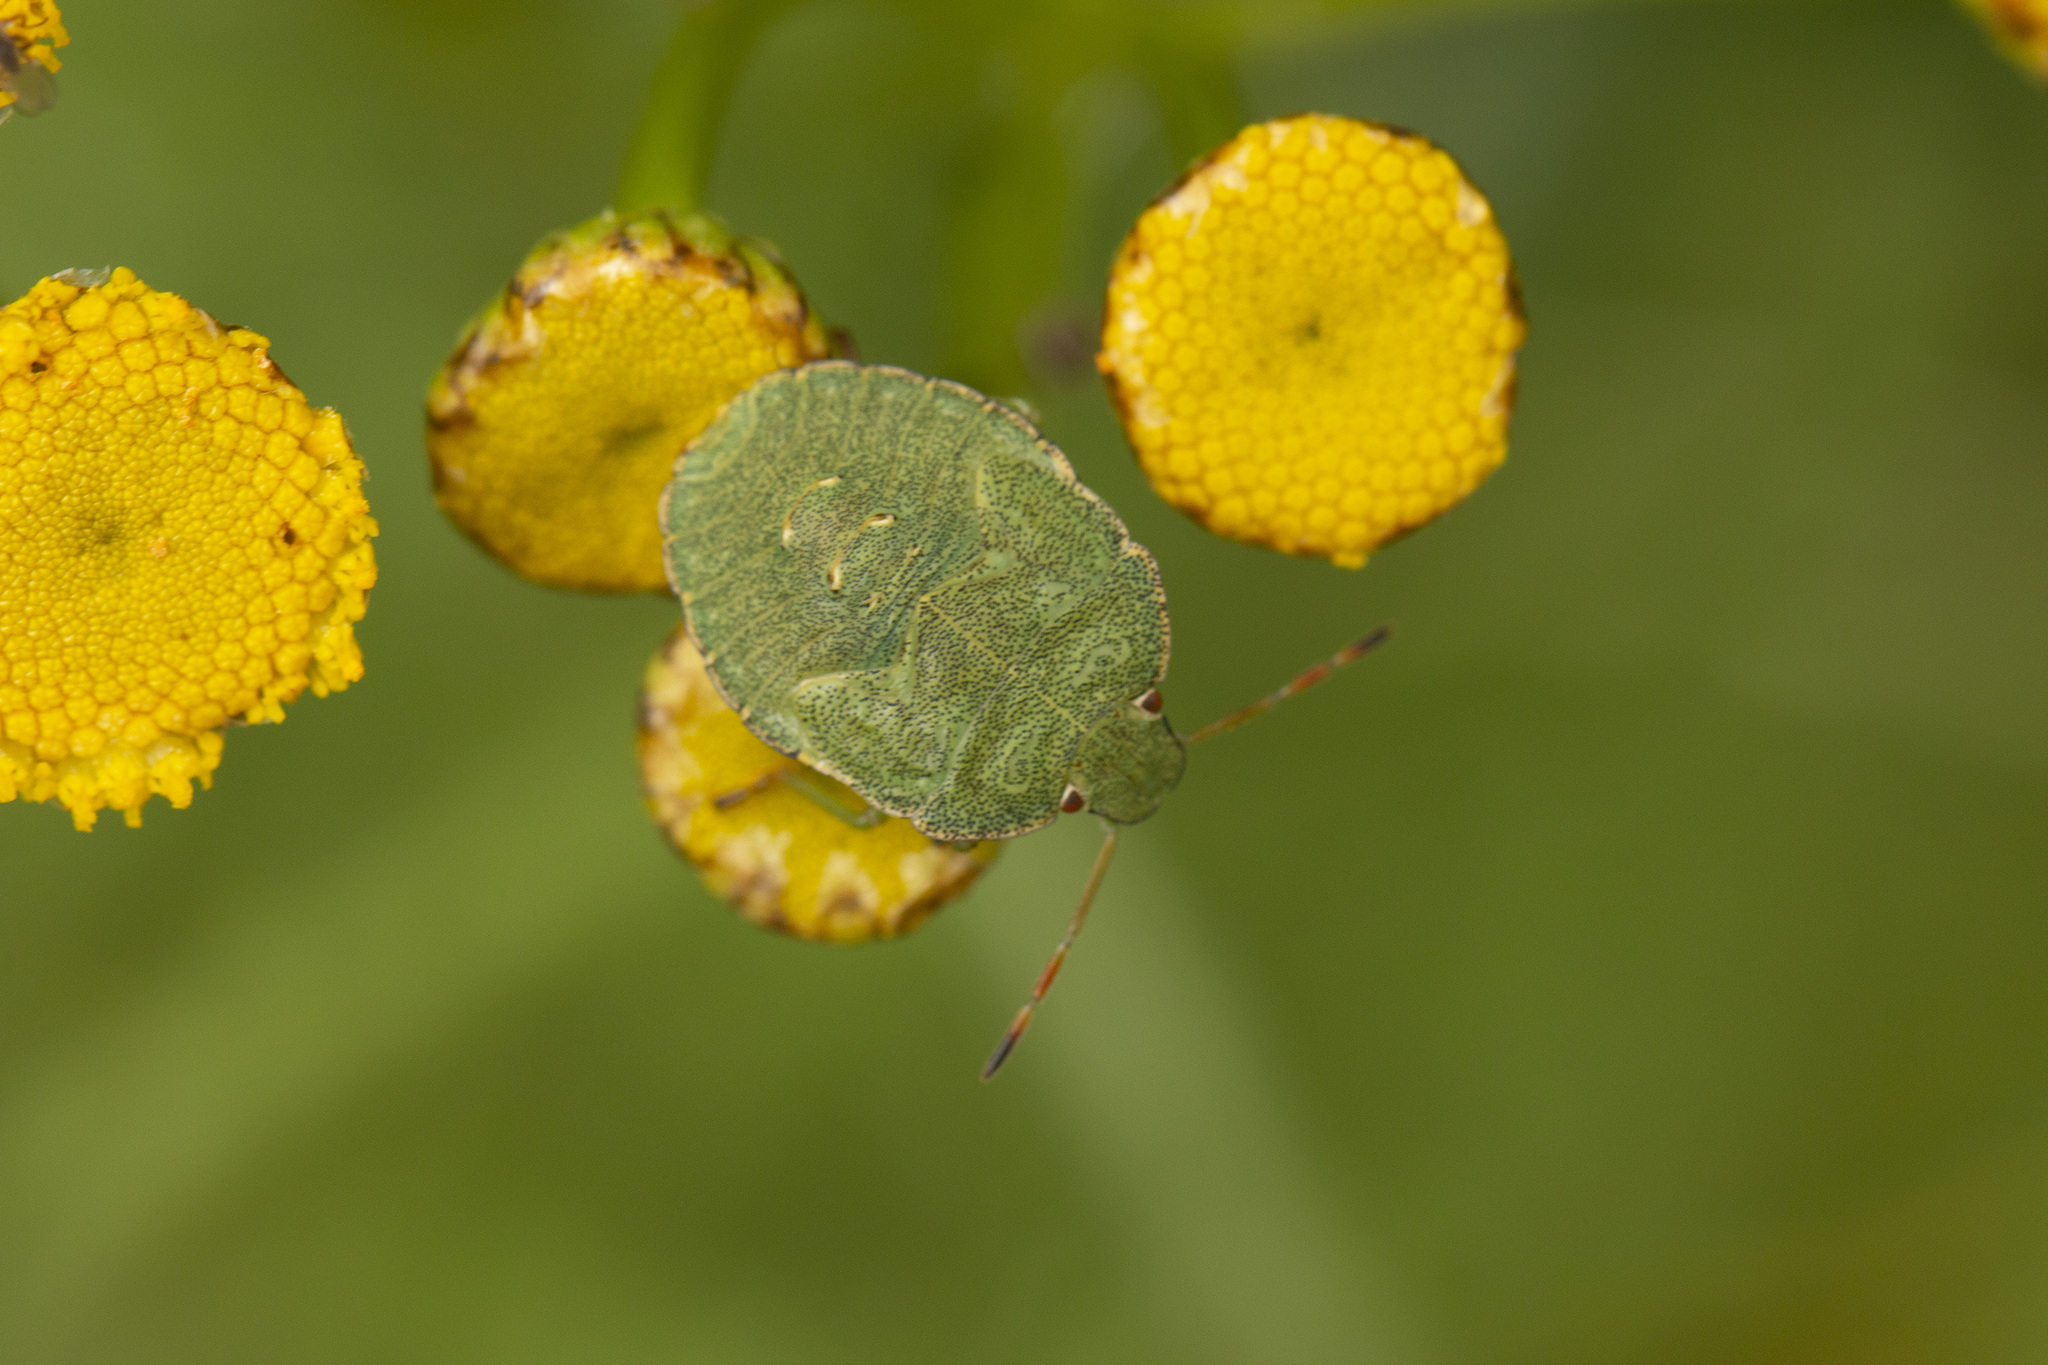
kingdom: Animalia
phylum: Arthropoda
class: Insecta
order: Hemiptera
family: Pentatomidae
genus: Palomena
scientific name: Palomena prasina
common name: Green shieldbug
